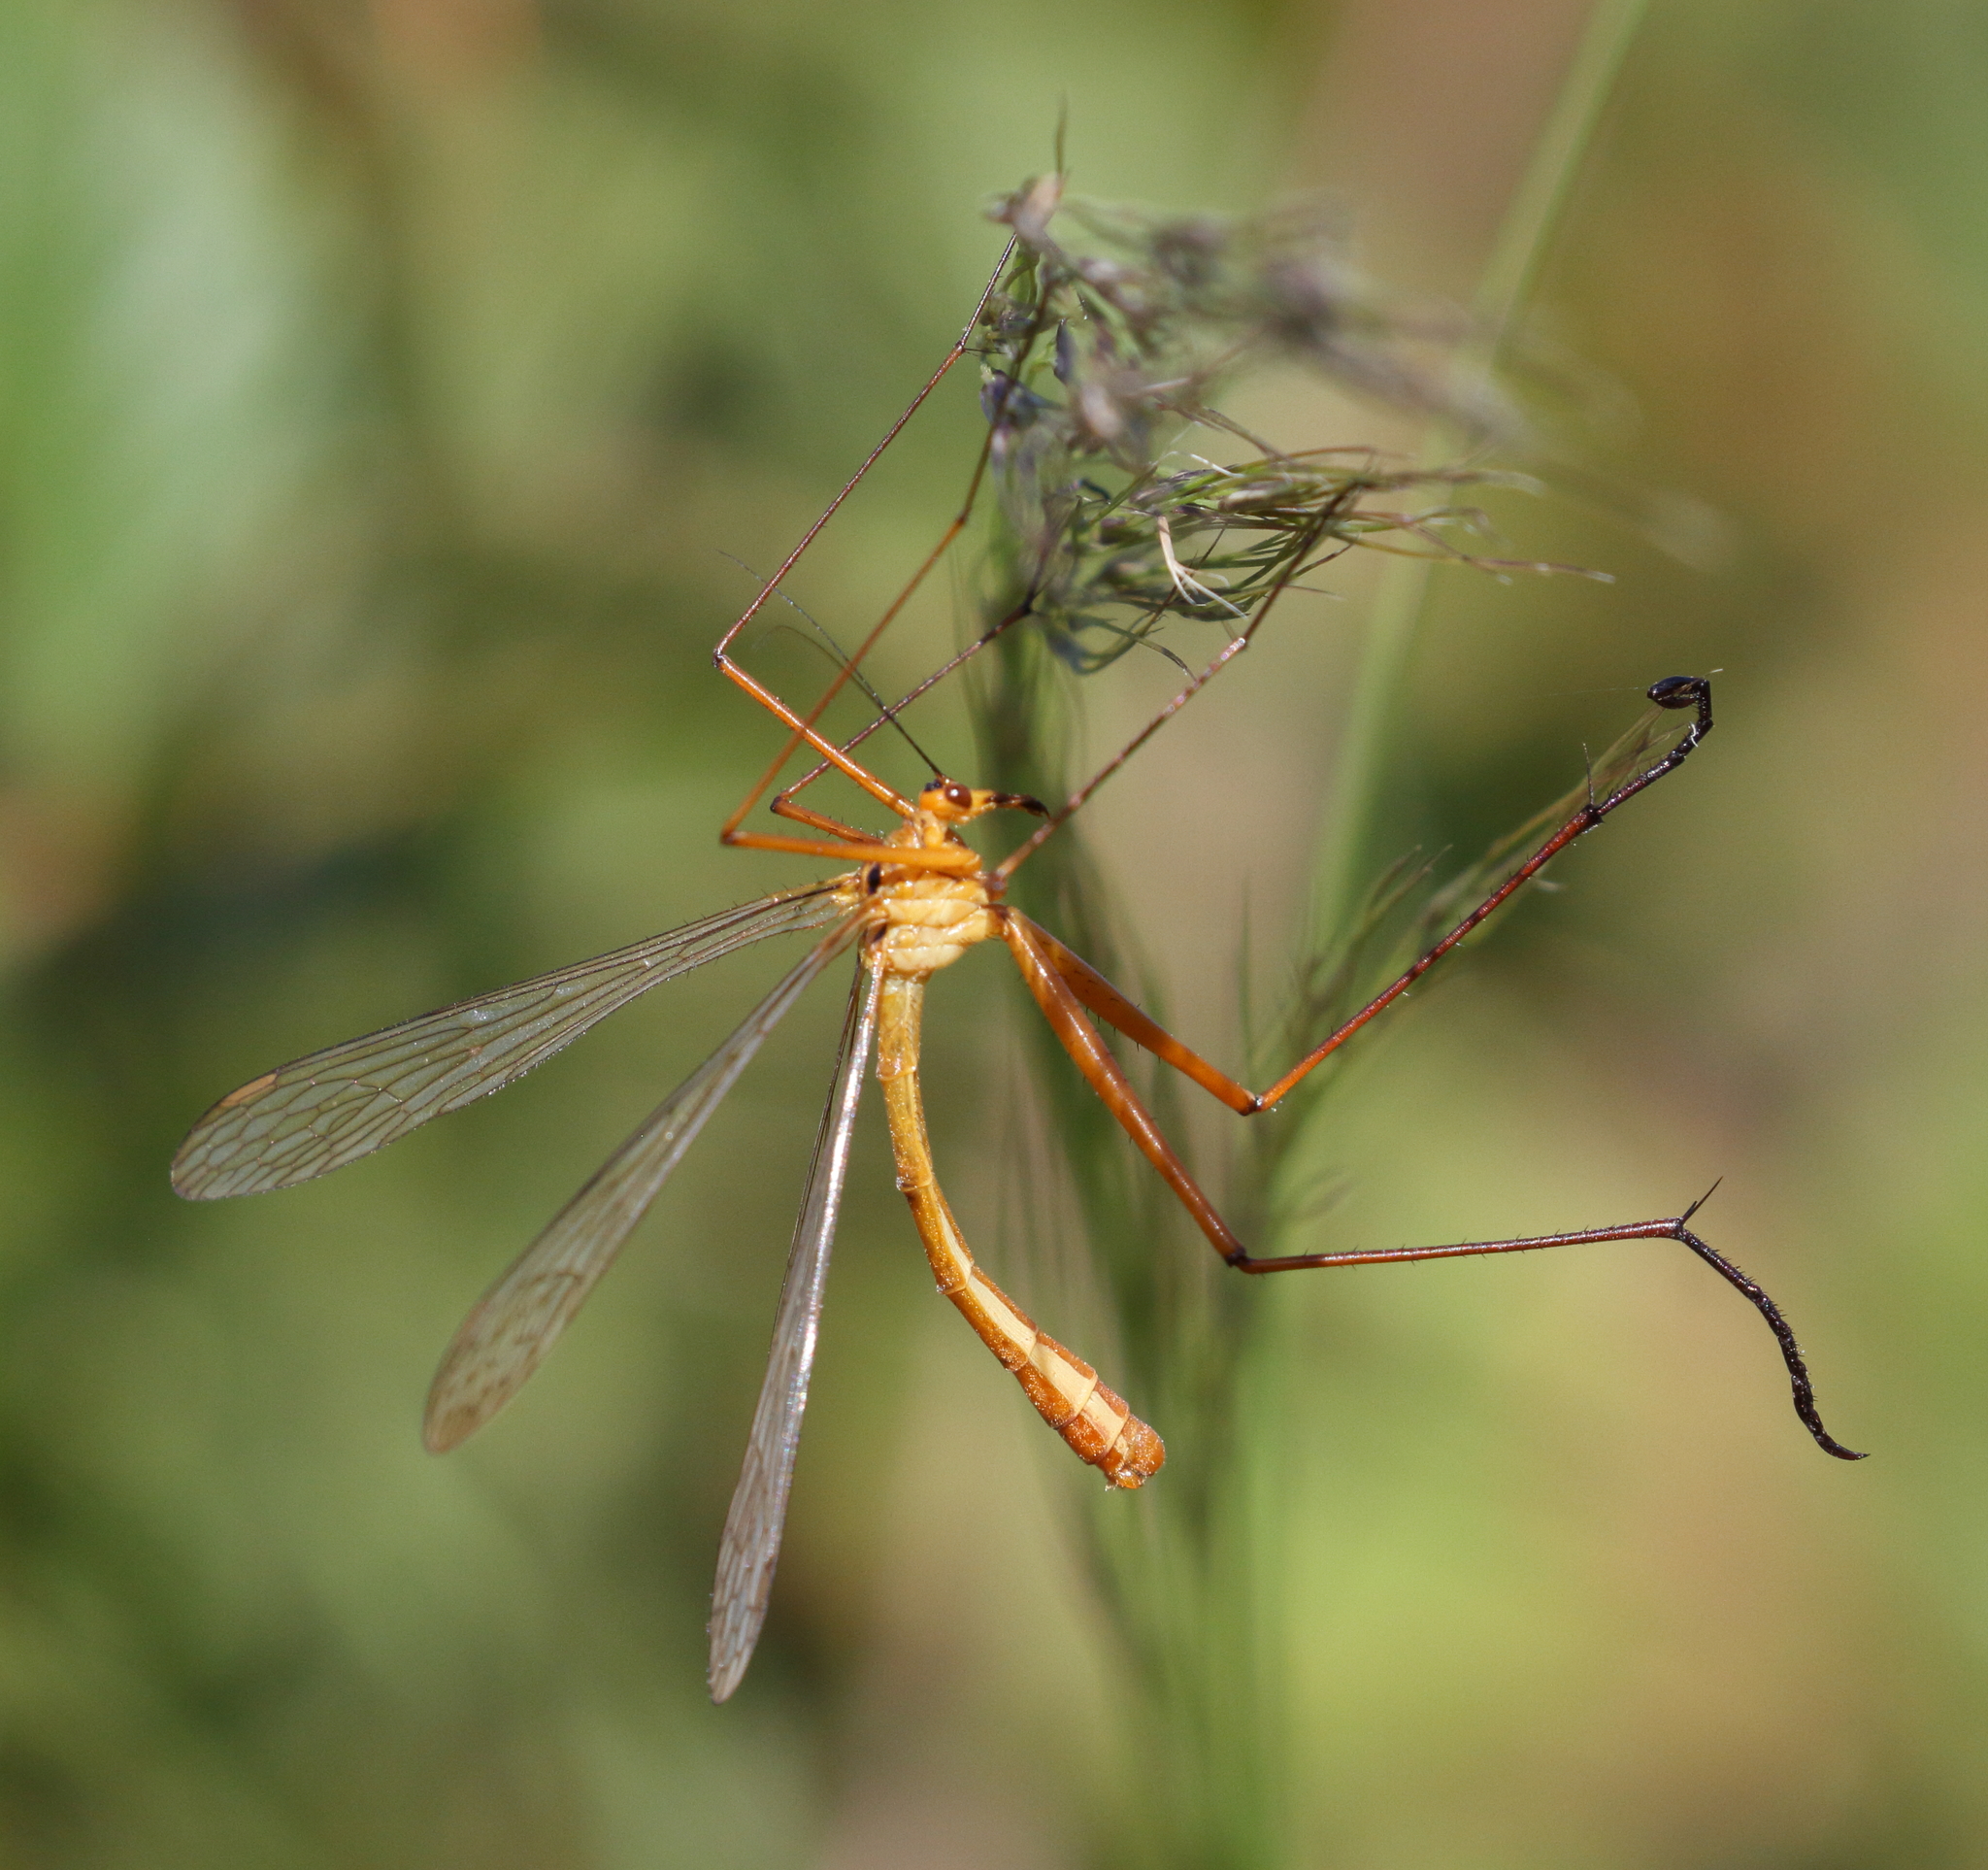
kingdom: Animalia
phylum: Arthropoda
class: Insecta
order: Mecoptera
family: Bittacidae
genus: Bittacus
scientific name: Bittacus kimminsi
